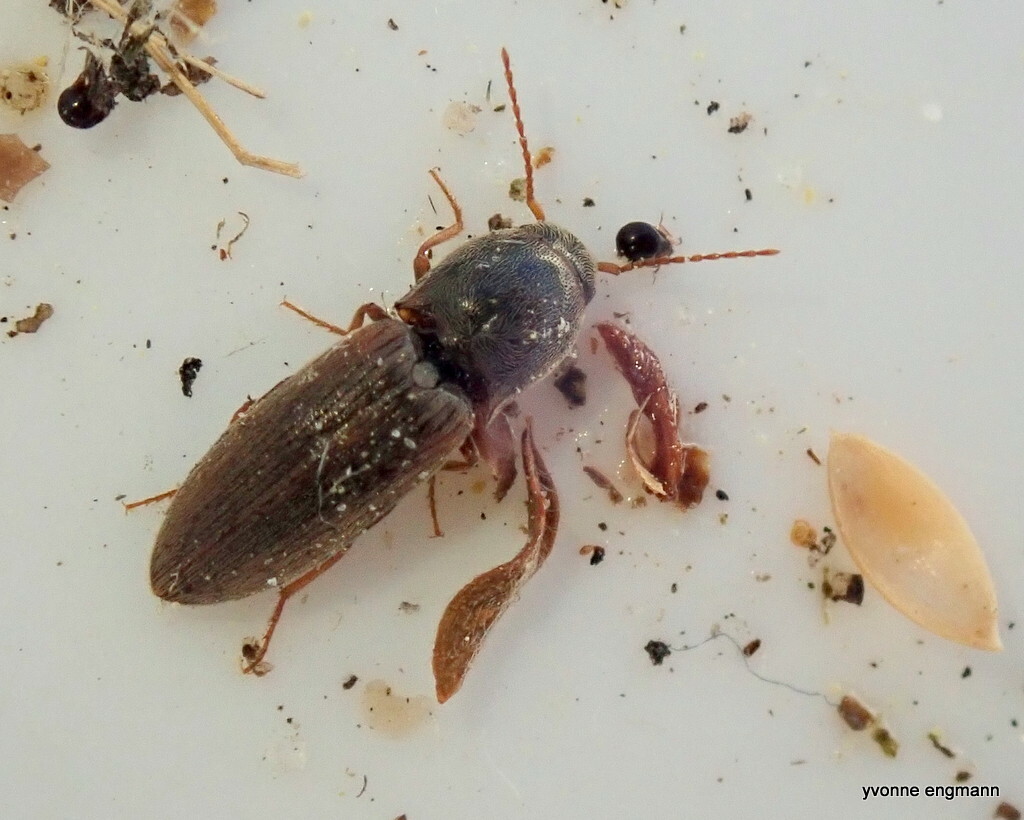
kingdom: Animalia
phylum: Arthropoda
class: Insecta
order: Coleoptera
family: Elateridae
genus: Agriotes
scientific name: Agriotes sputator
